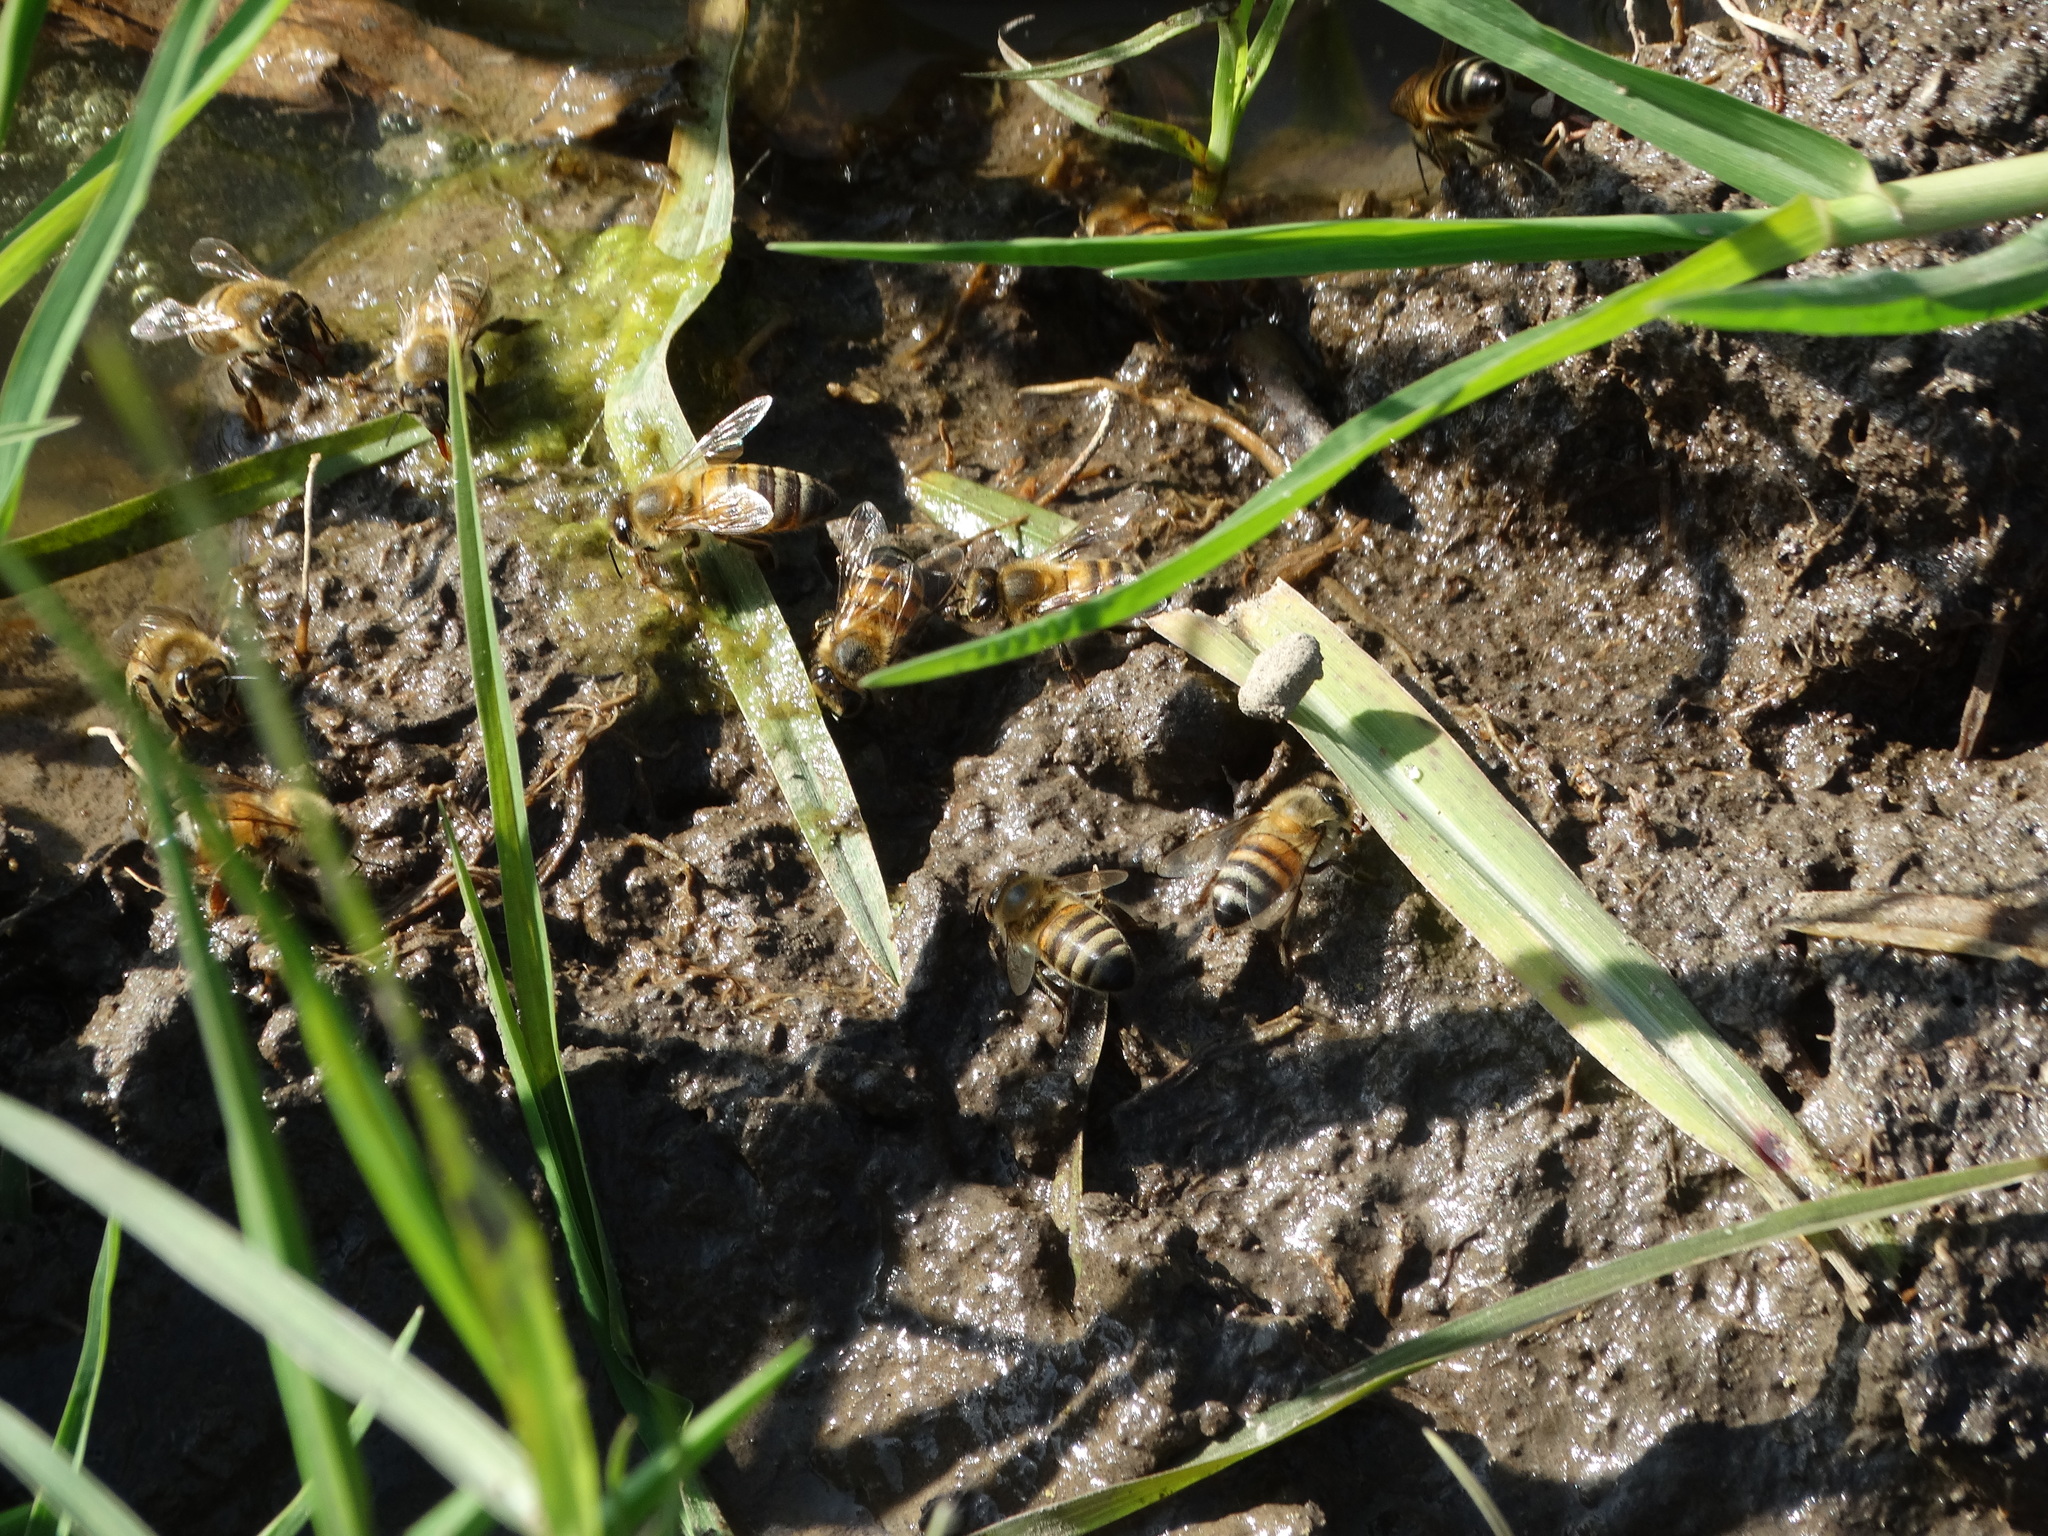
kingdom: Animalia
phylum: Arthropoda
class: Insecta
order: Hymenoptera
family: Apidae
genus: Apis
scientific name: Apis mellifera
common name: Honey bee
